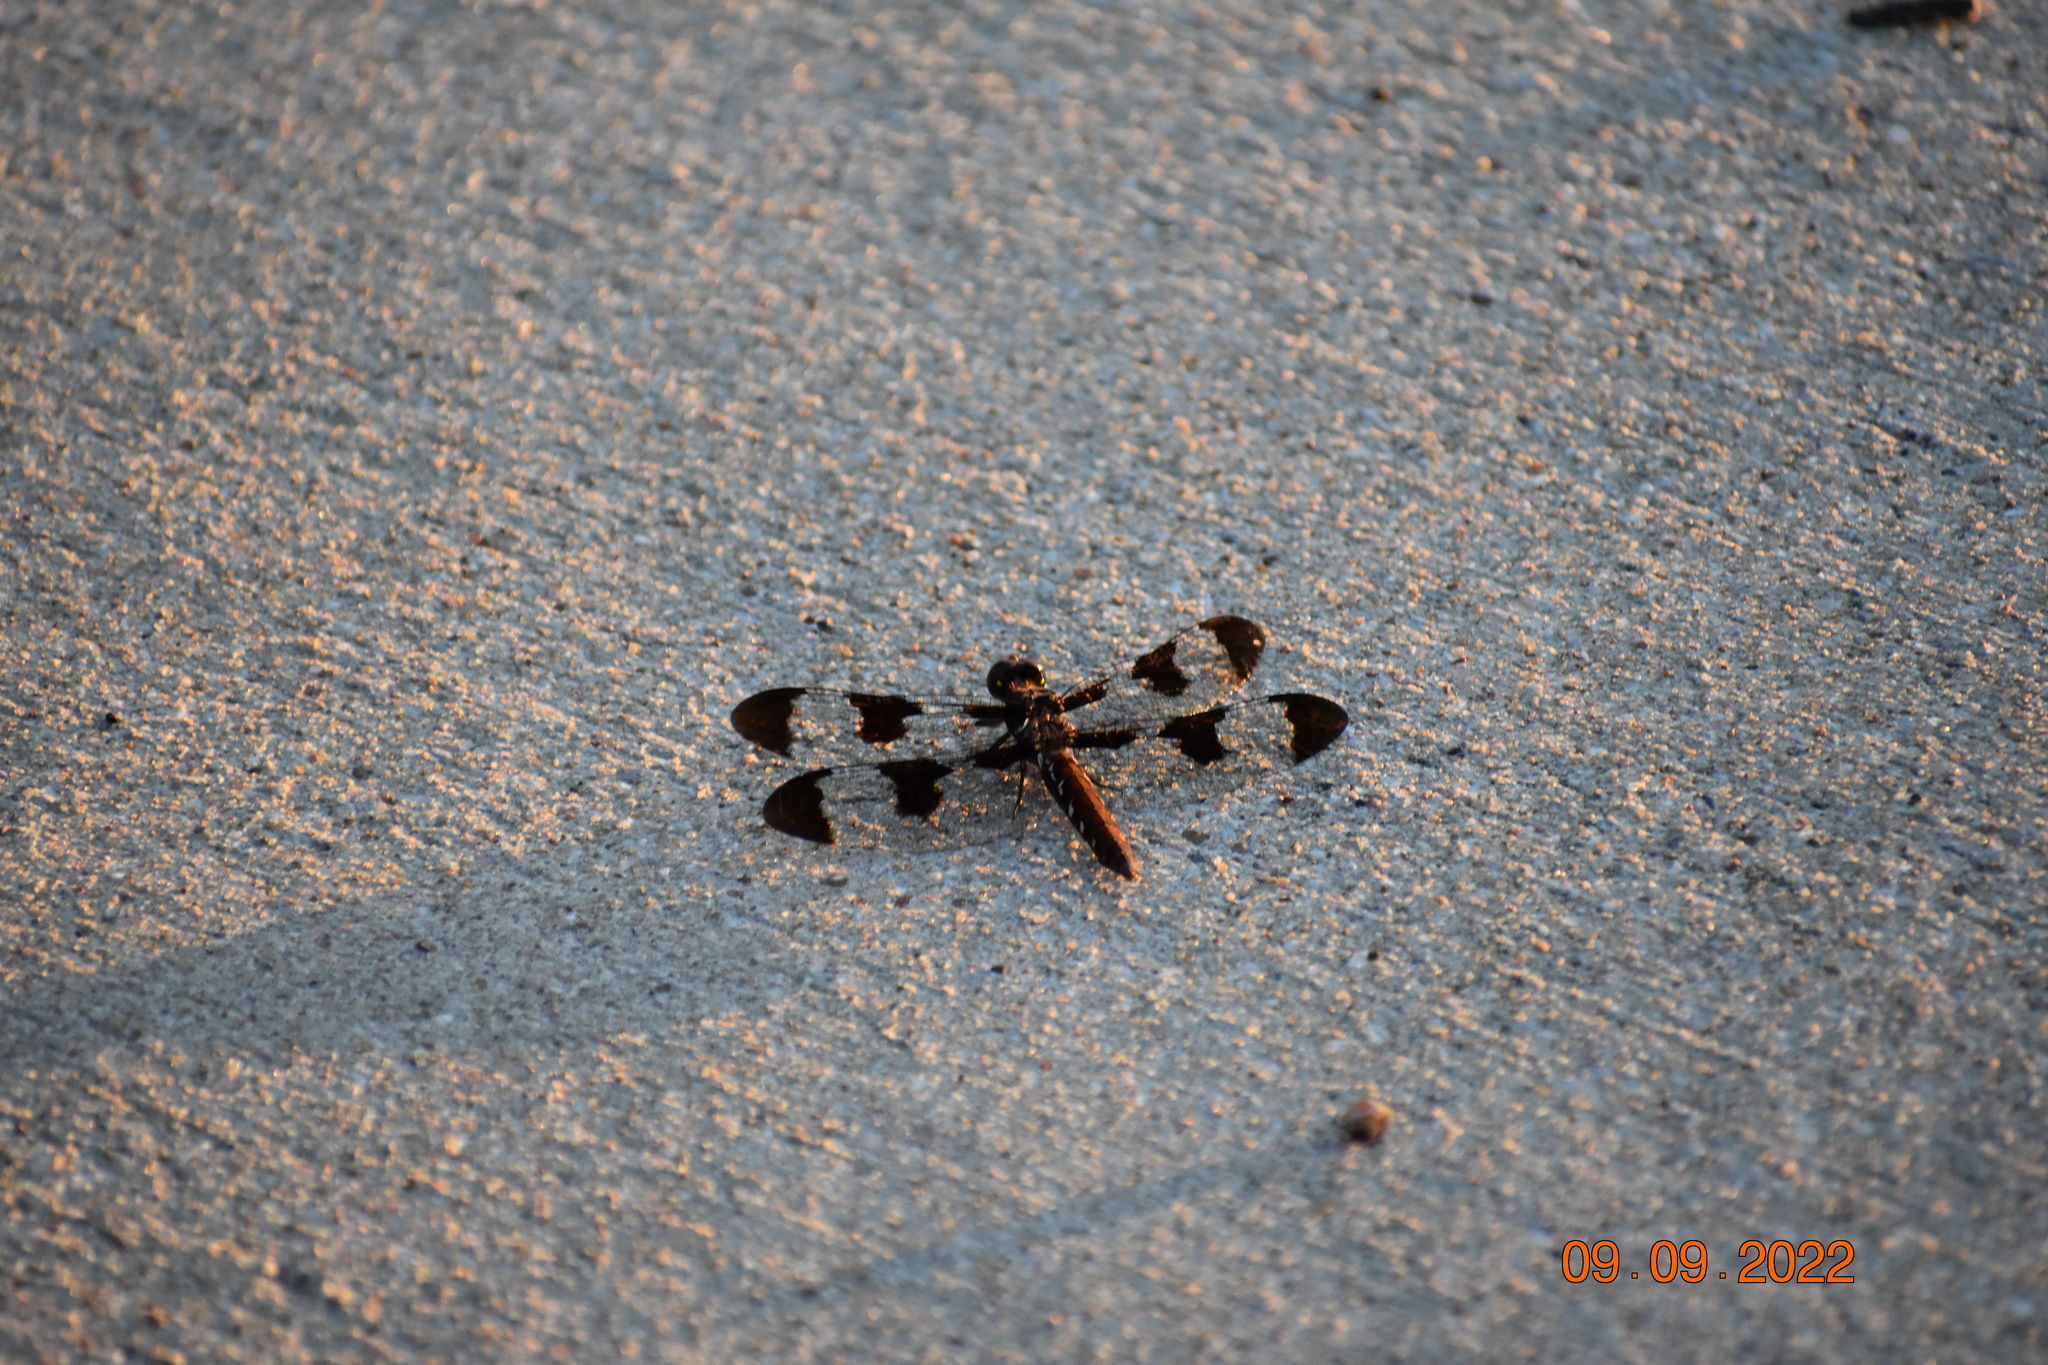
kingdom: Animalia
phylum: Arthropoda
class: Insecta
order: Odonata
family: Libellulidae
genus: Plathemis
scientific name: Plathemis lydia
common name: Common whitetail
